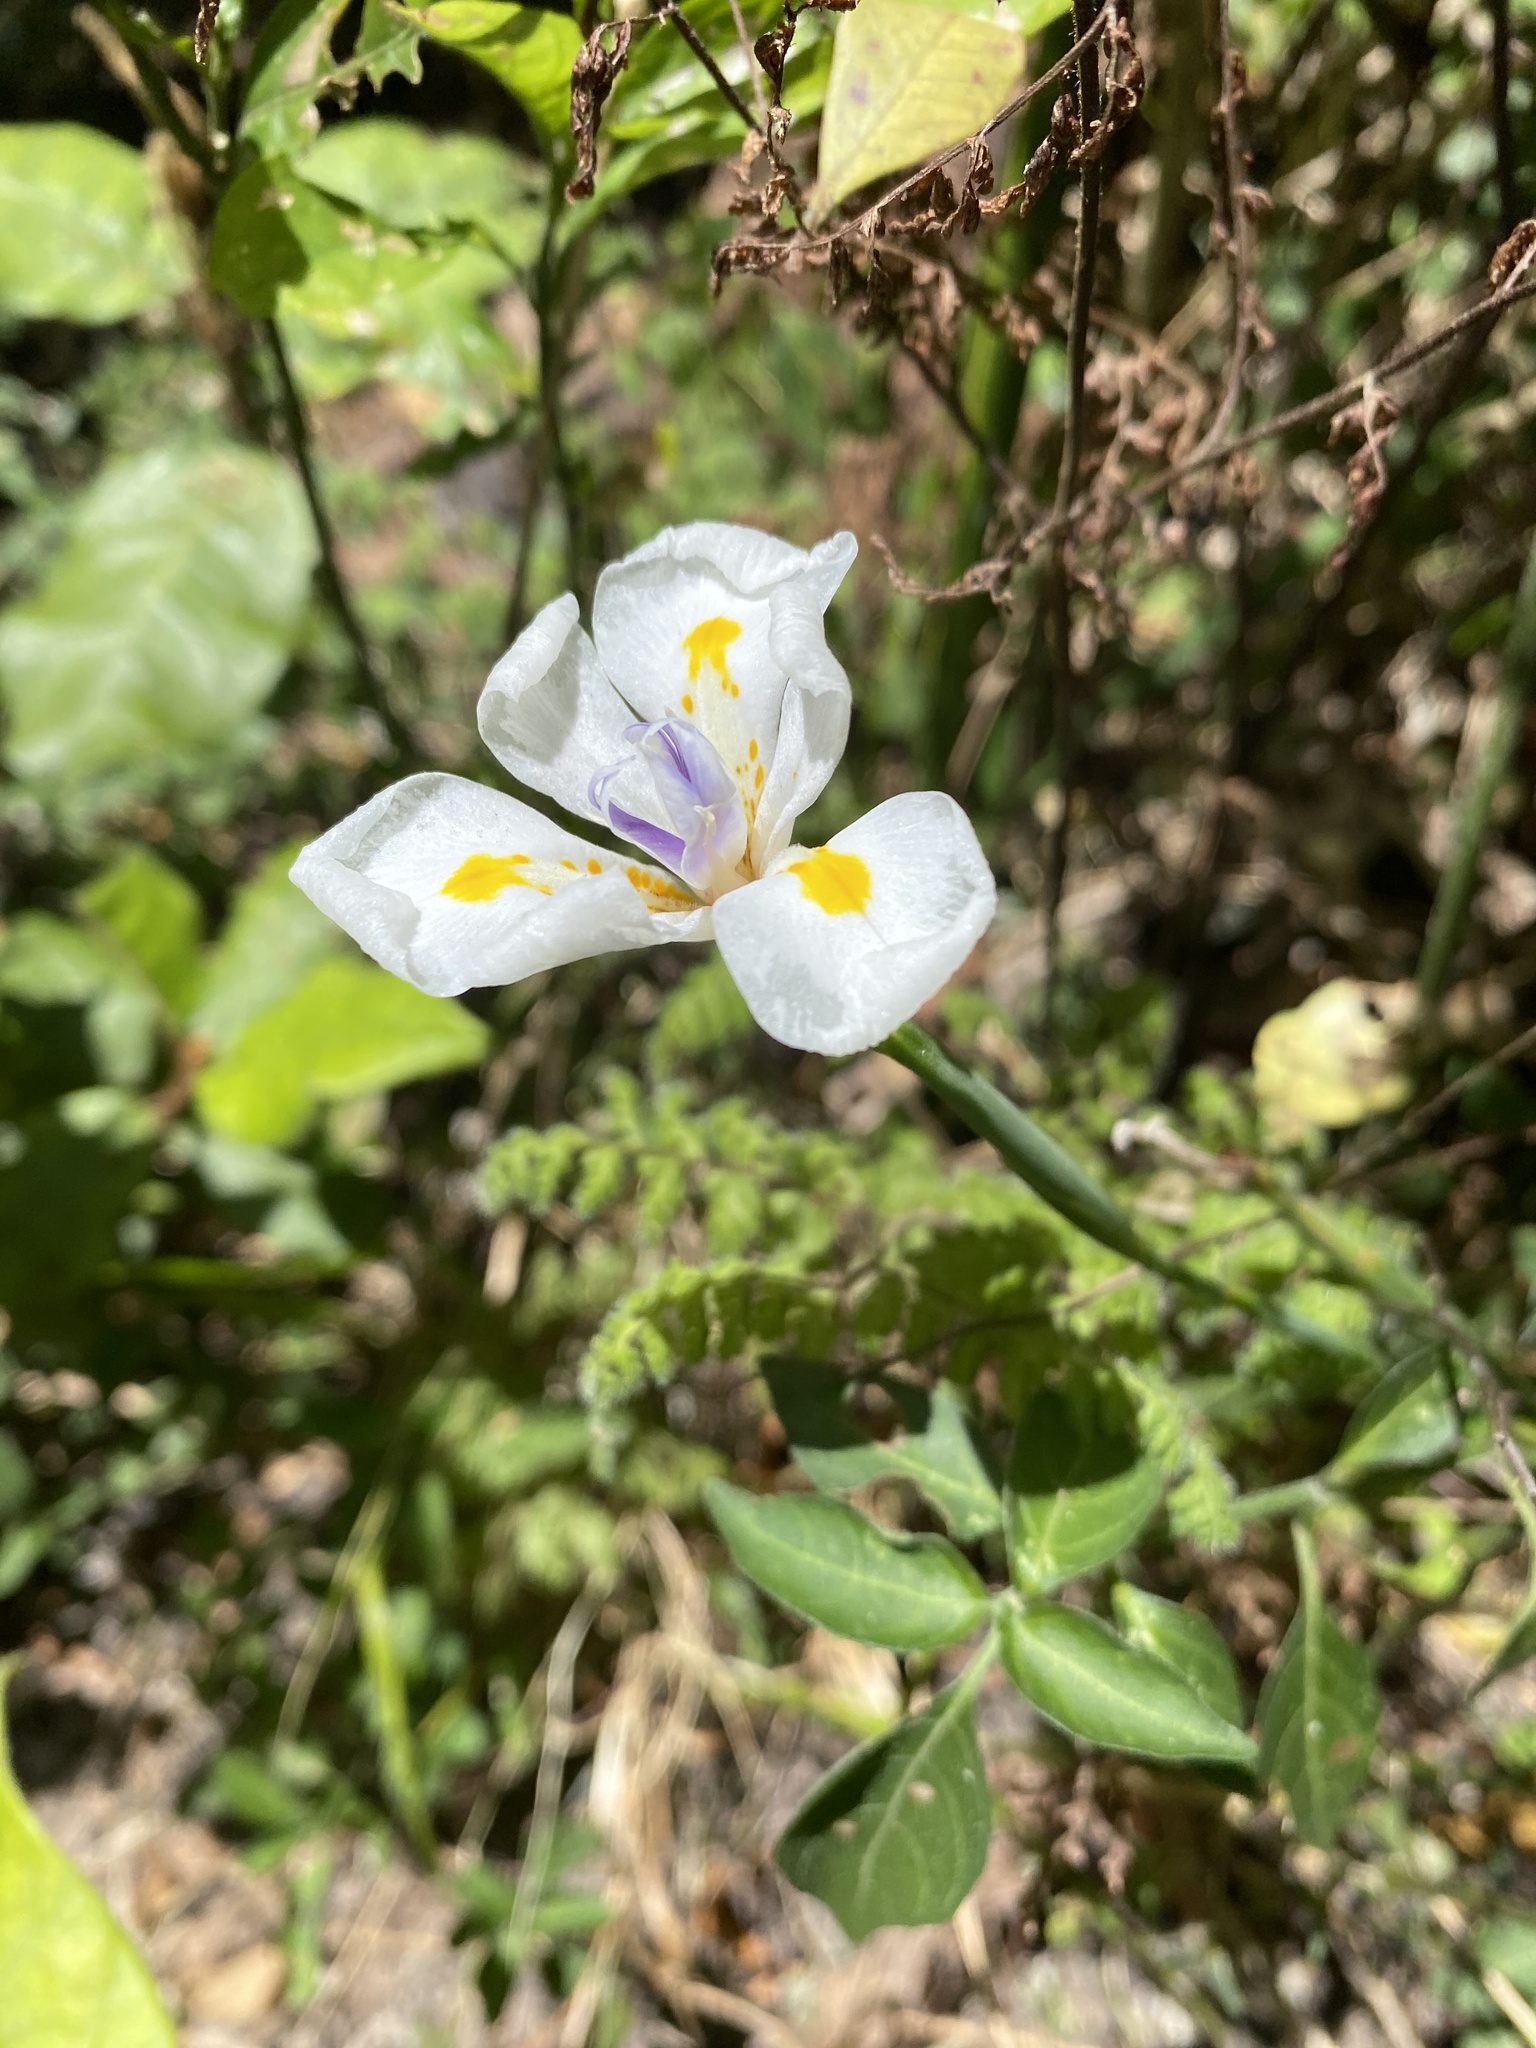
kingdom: Plantae
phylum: Tracheophyta
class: Liliopsida
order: Asparagales
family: Iridaceae
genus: Dietes
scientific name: Dietes iridioides
